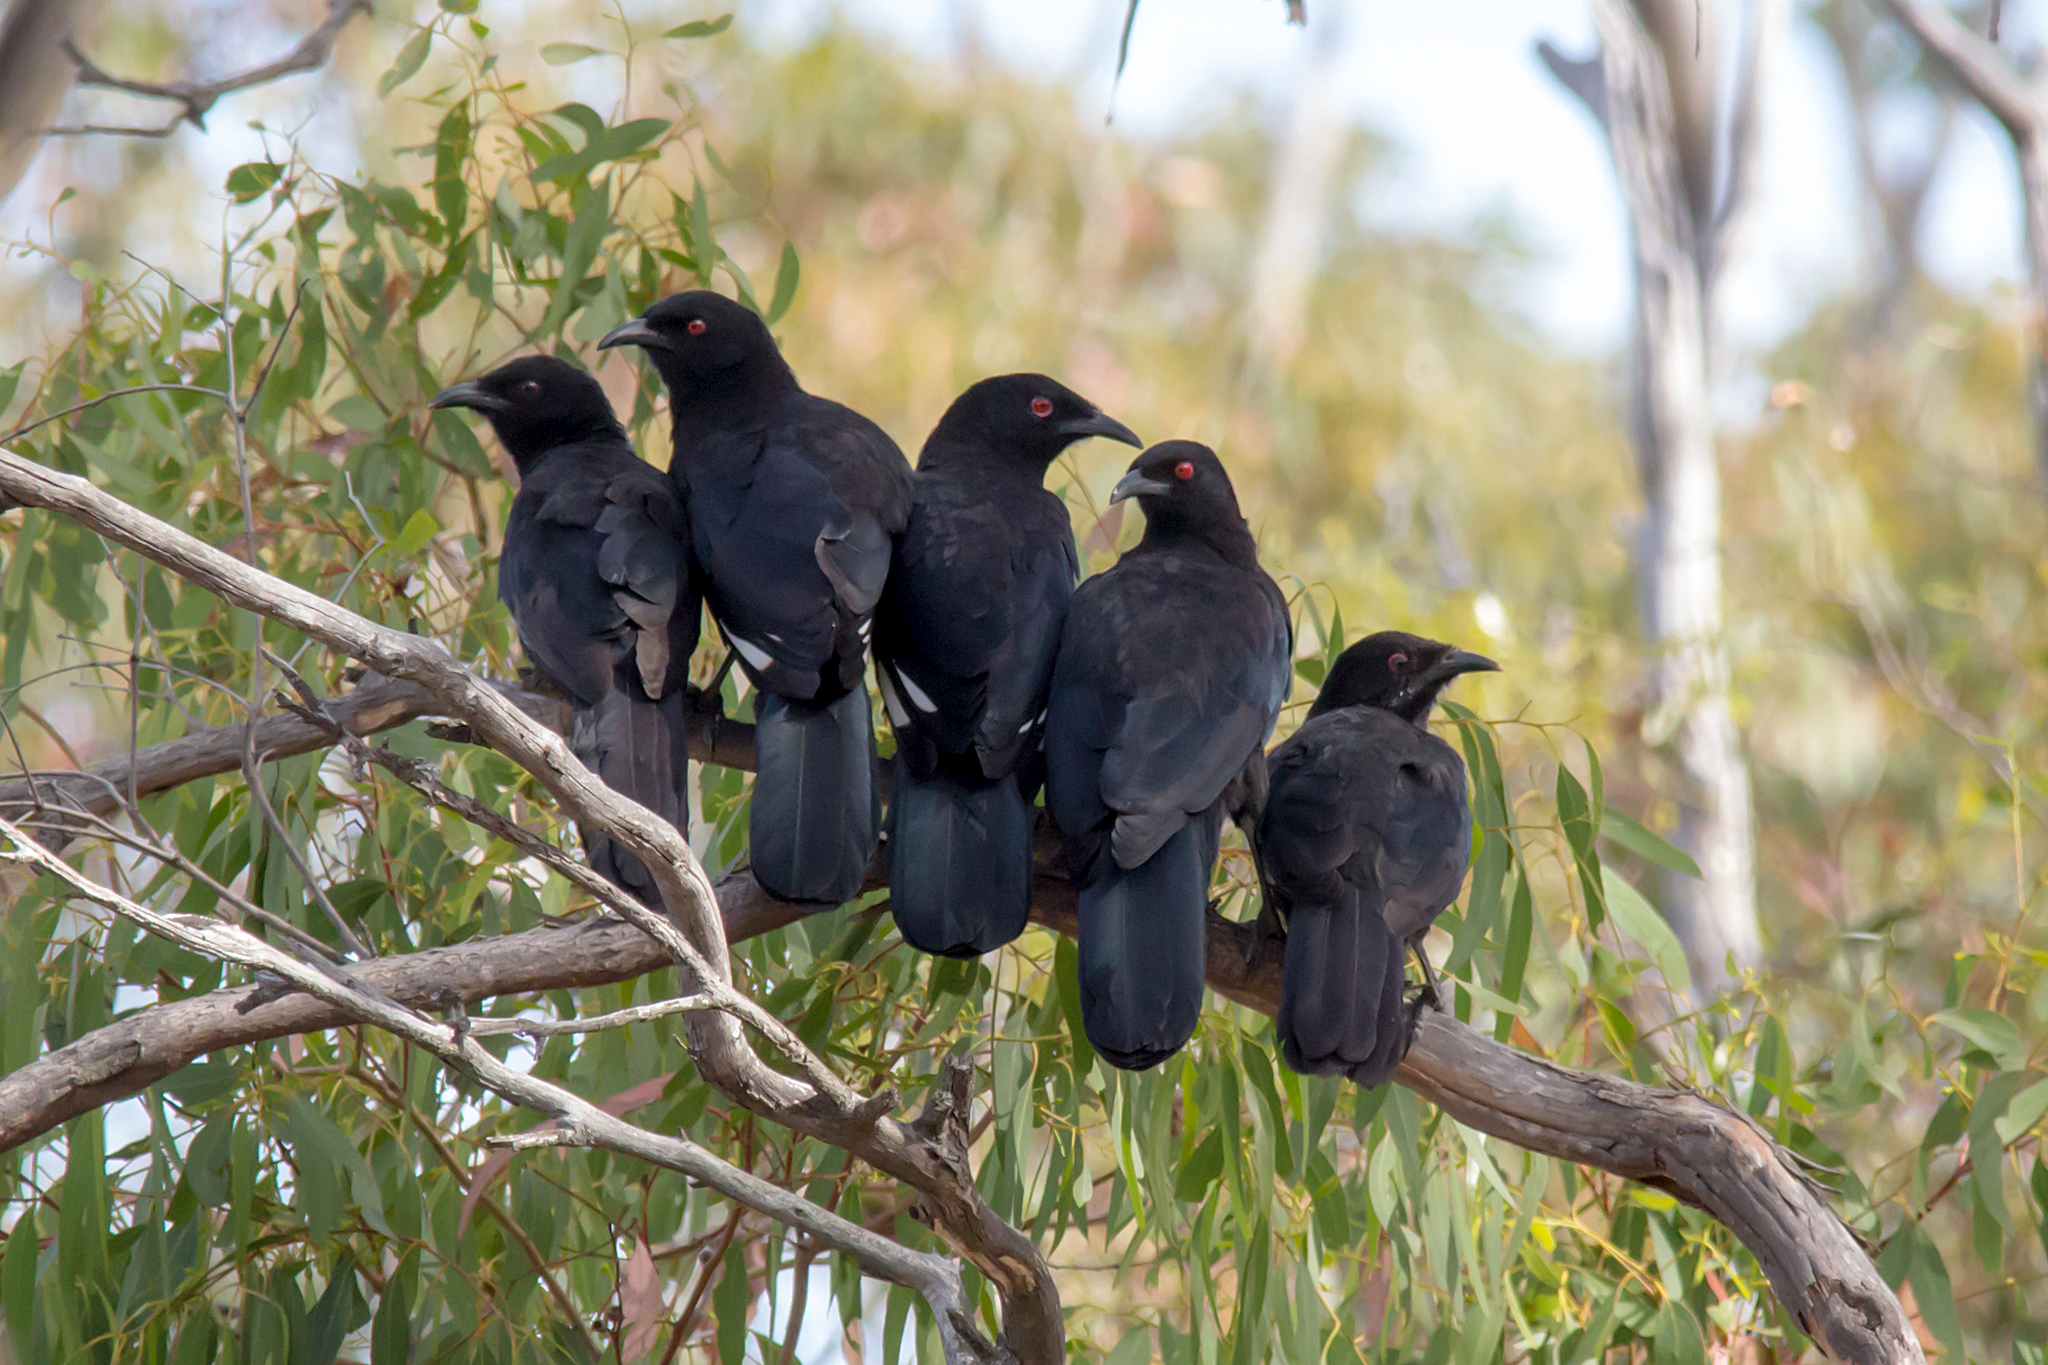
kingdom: Animalia
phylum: Chordata
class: Aves
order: Passeriformes
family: Corcoracidae
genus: Corcorax
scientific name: Corcorax melanoramphos
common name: White-winged chough
